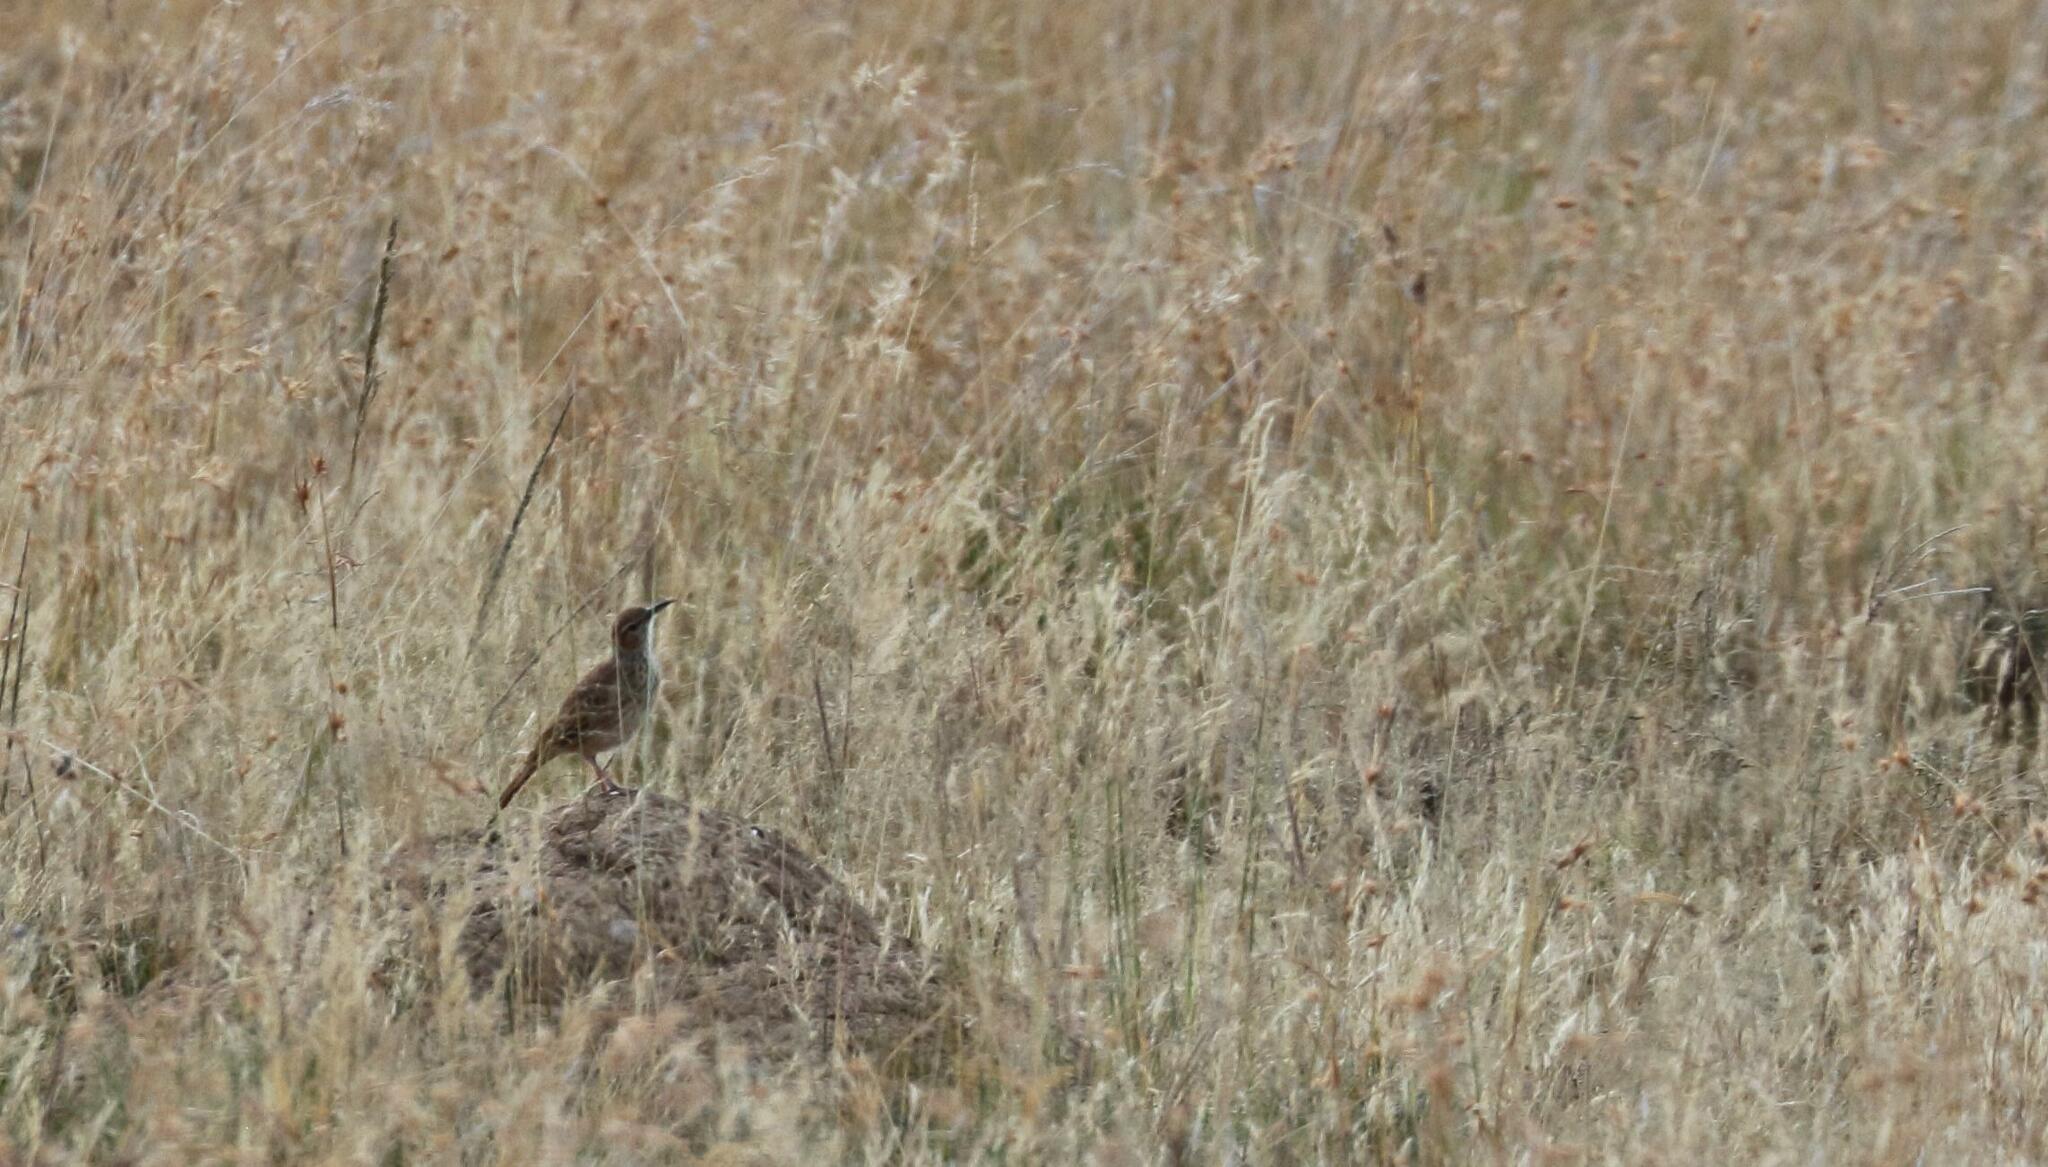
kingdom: Animalia
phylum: Chordata
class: Aves
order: Passeriformes
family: Alaudidae
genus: Certhilauda
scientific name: Certhilauda subcoronata
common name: Karoo long-billed lark
